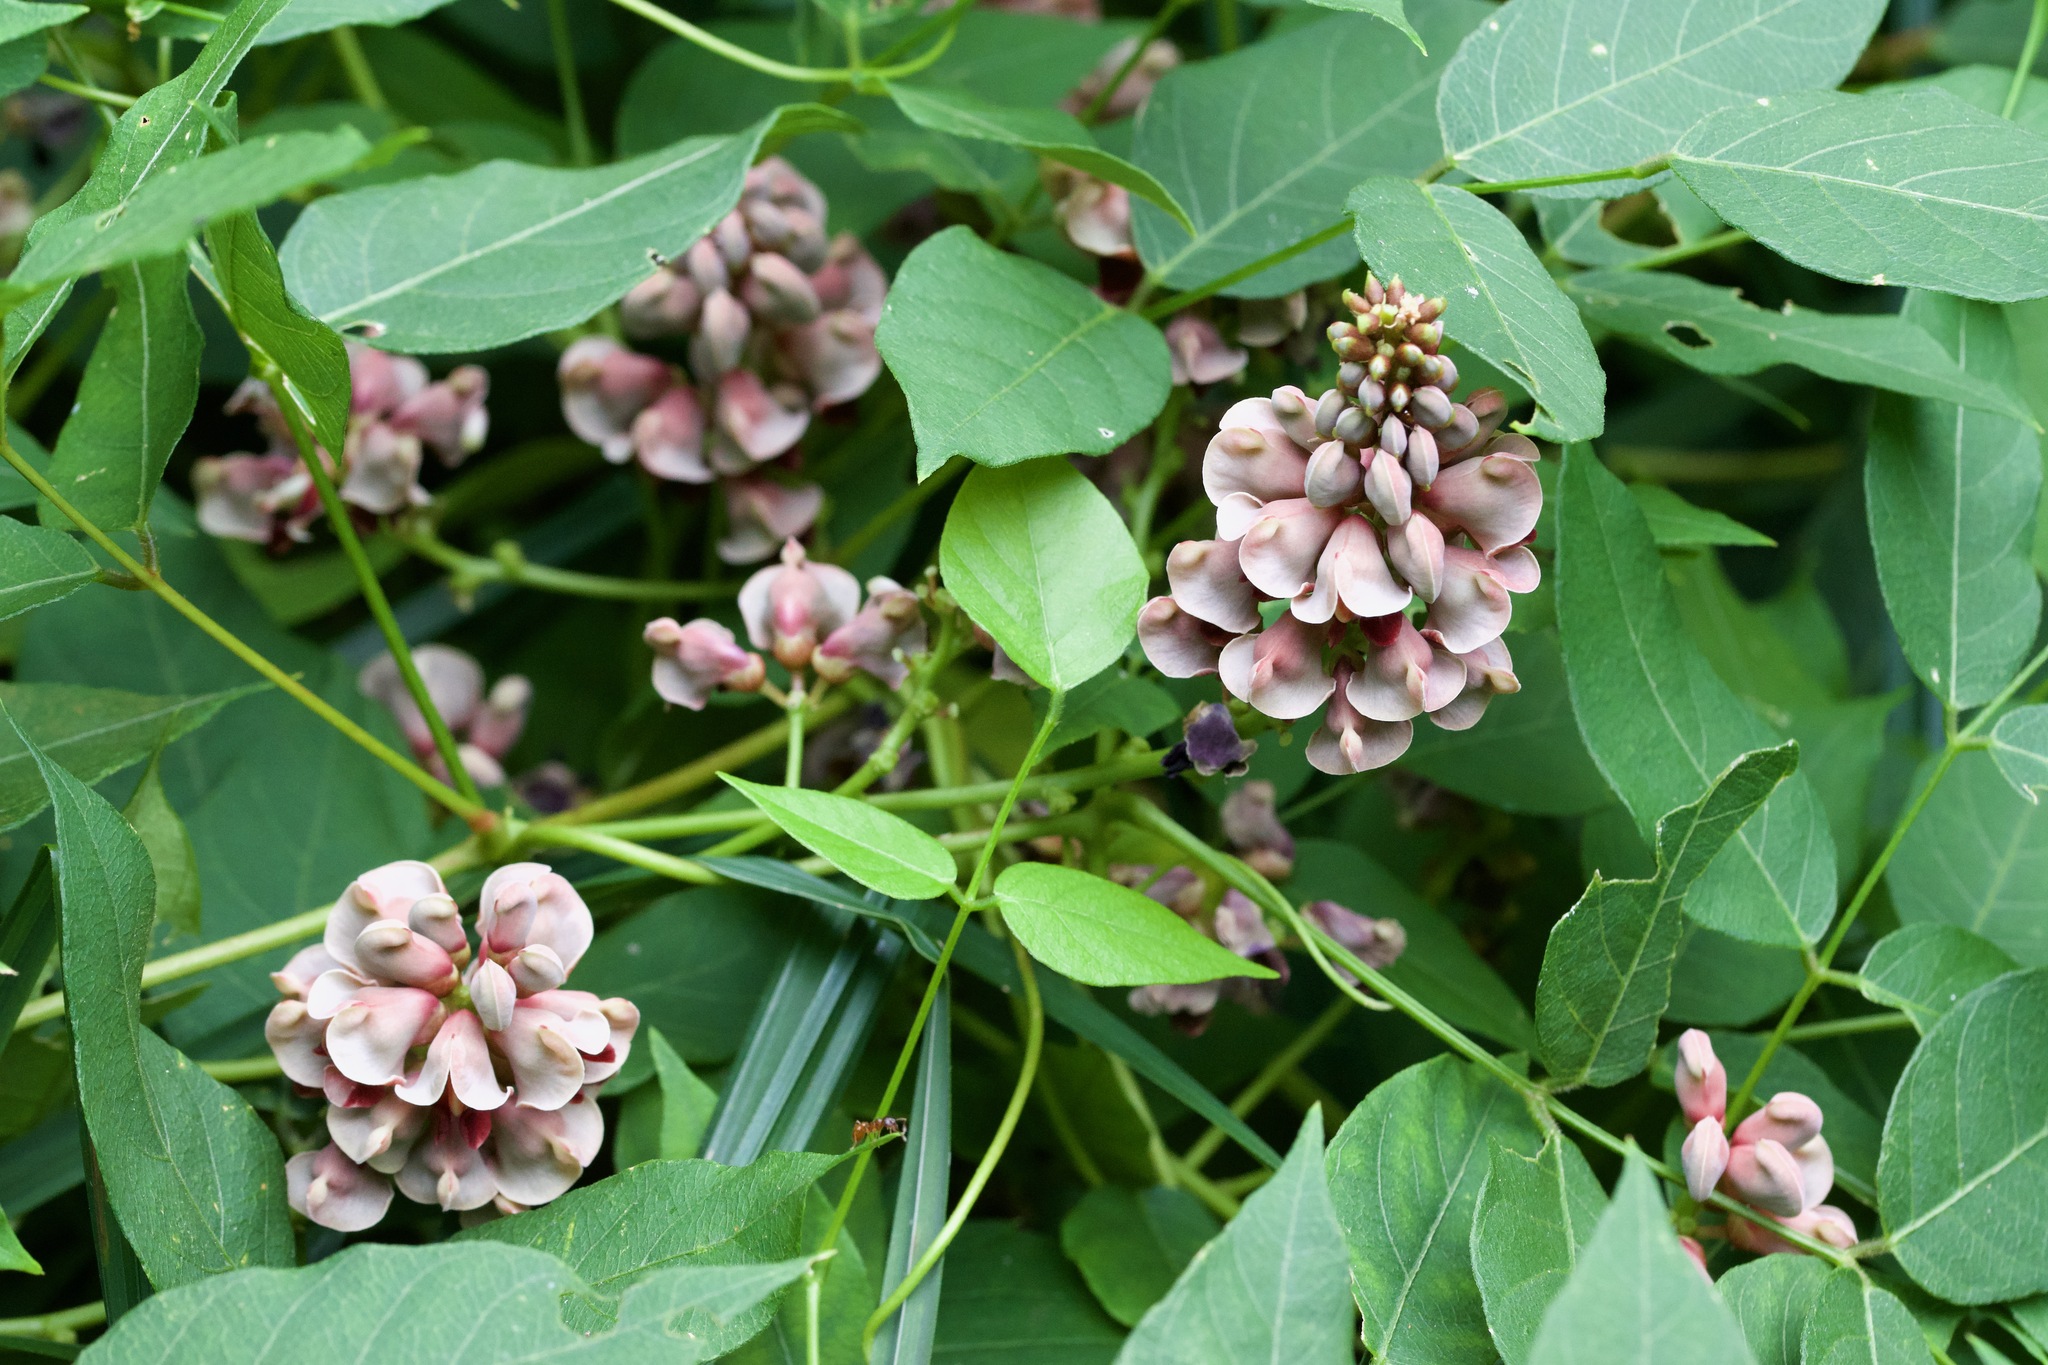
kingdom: Plantae
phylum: Tracheophyta
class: Magnoliopsida
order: Fabales
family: Fabaceae
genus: Apios
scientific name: Apios americana
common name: American potato-bean
